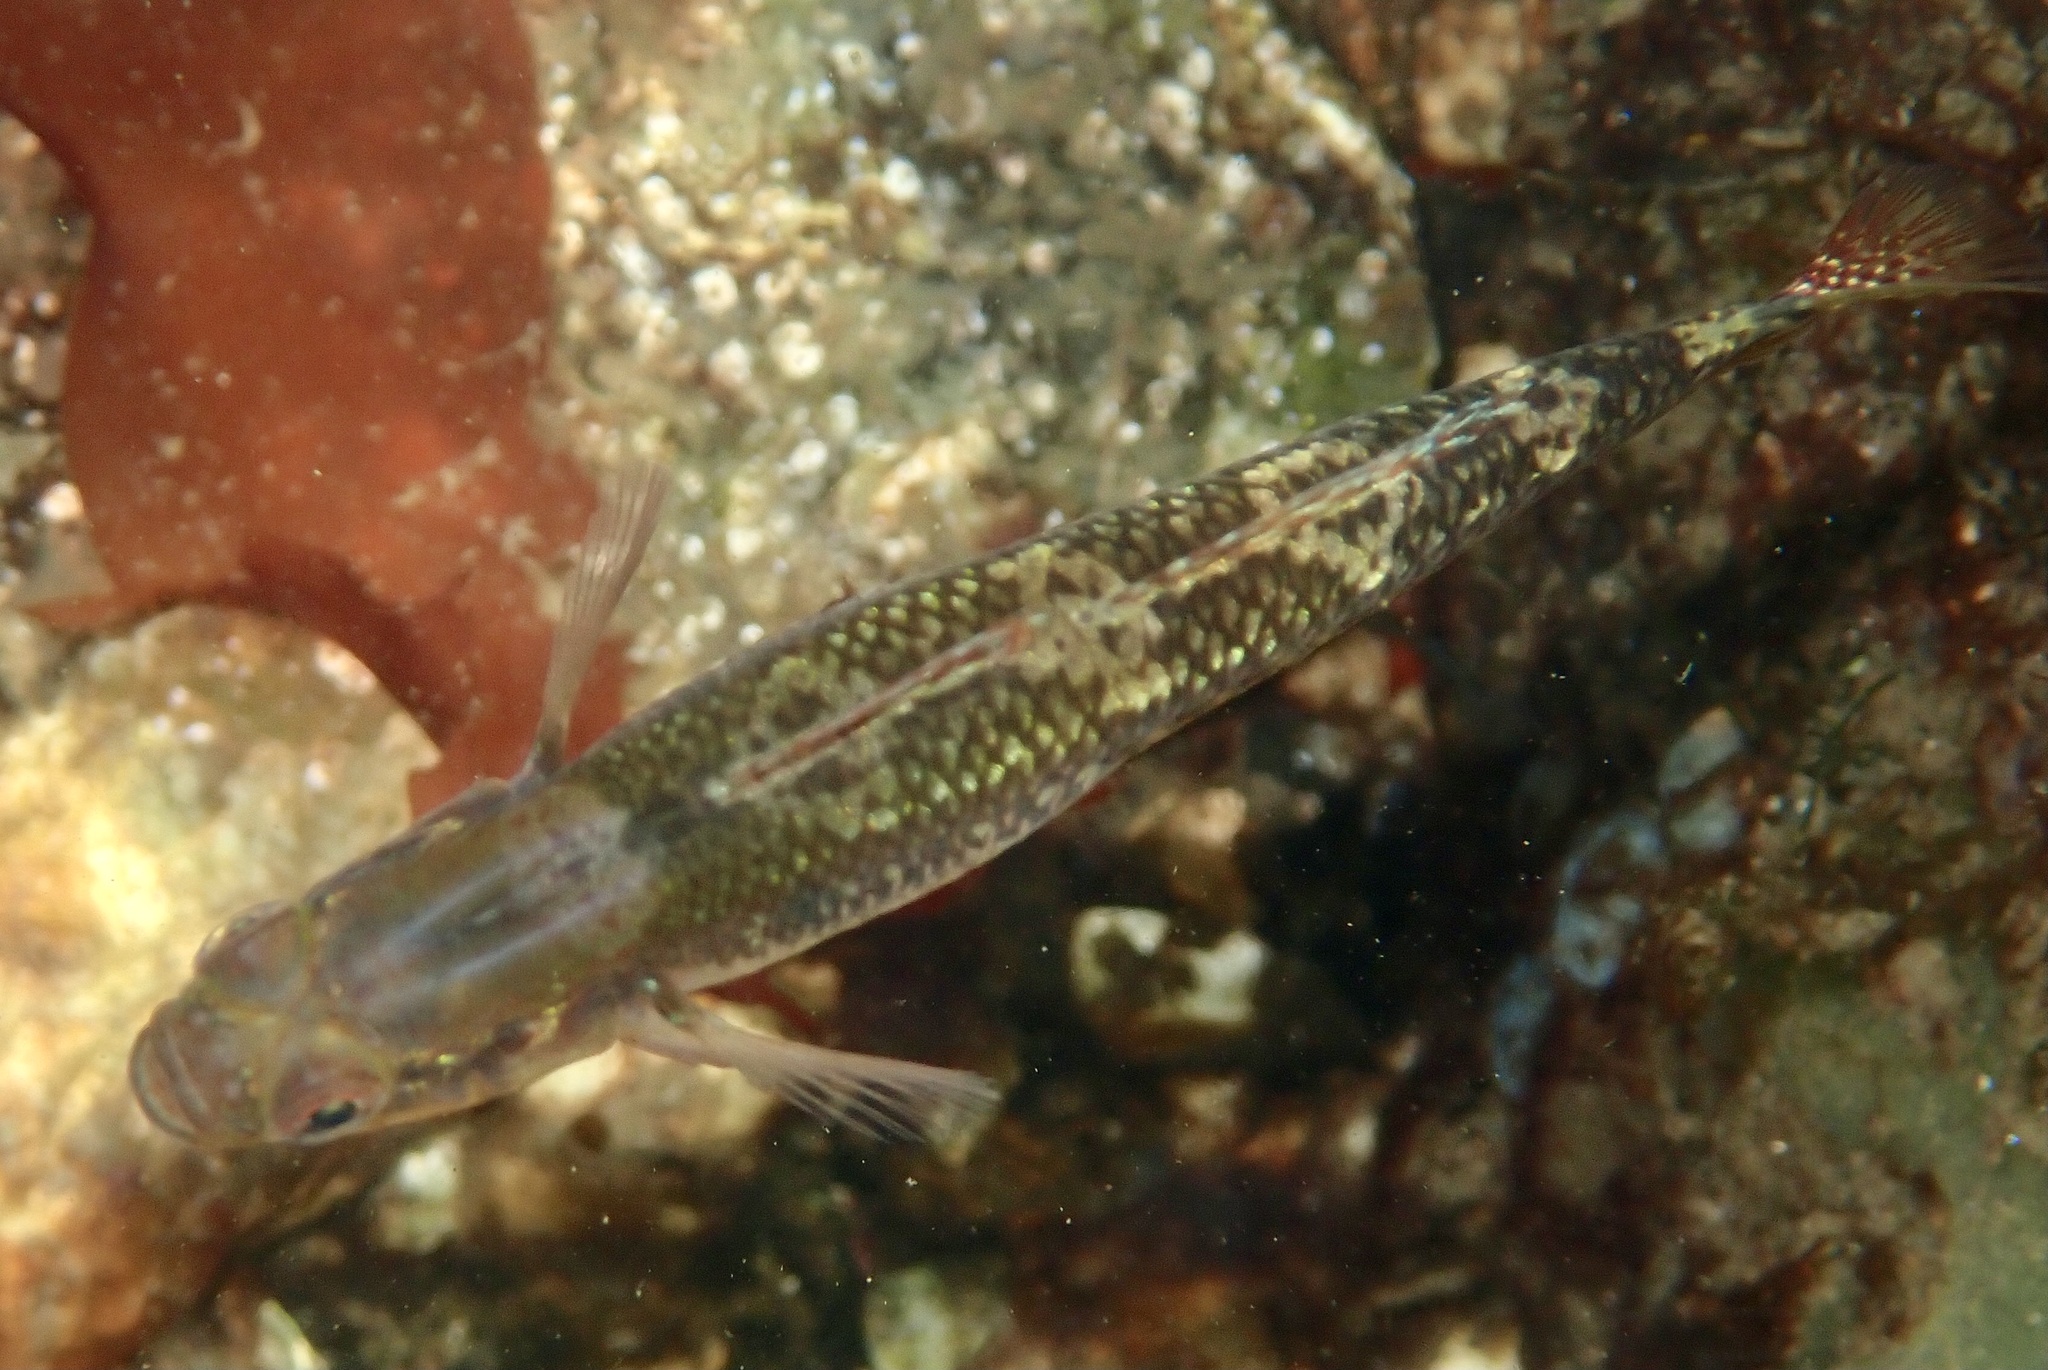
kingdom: Animalia
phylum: Chordata
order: Perciformes
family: Gobiidae
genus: Gobiusculus
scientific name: Gobiusculus flavescens
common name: Two-spotted goby
